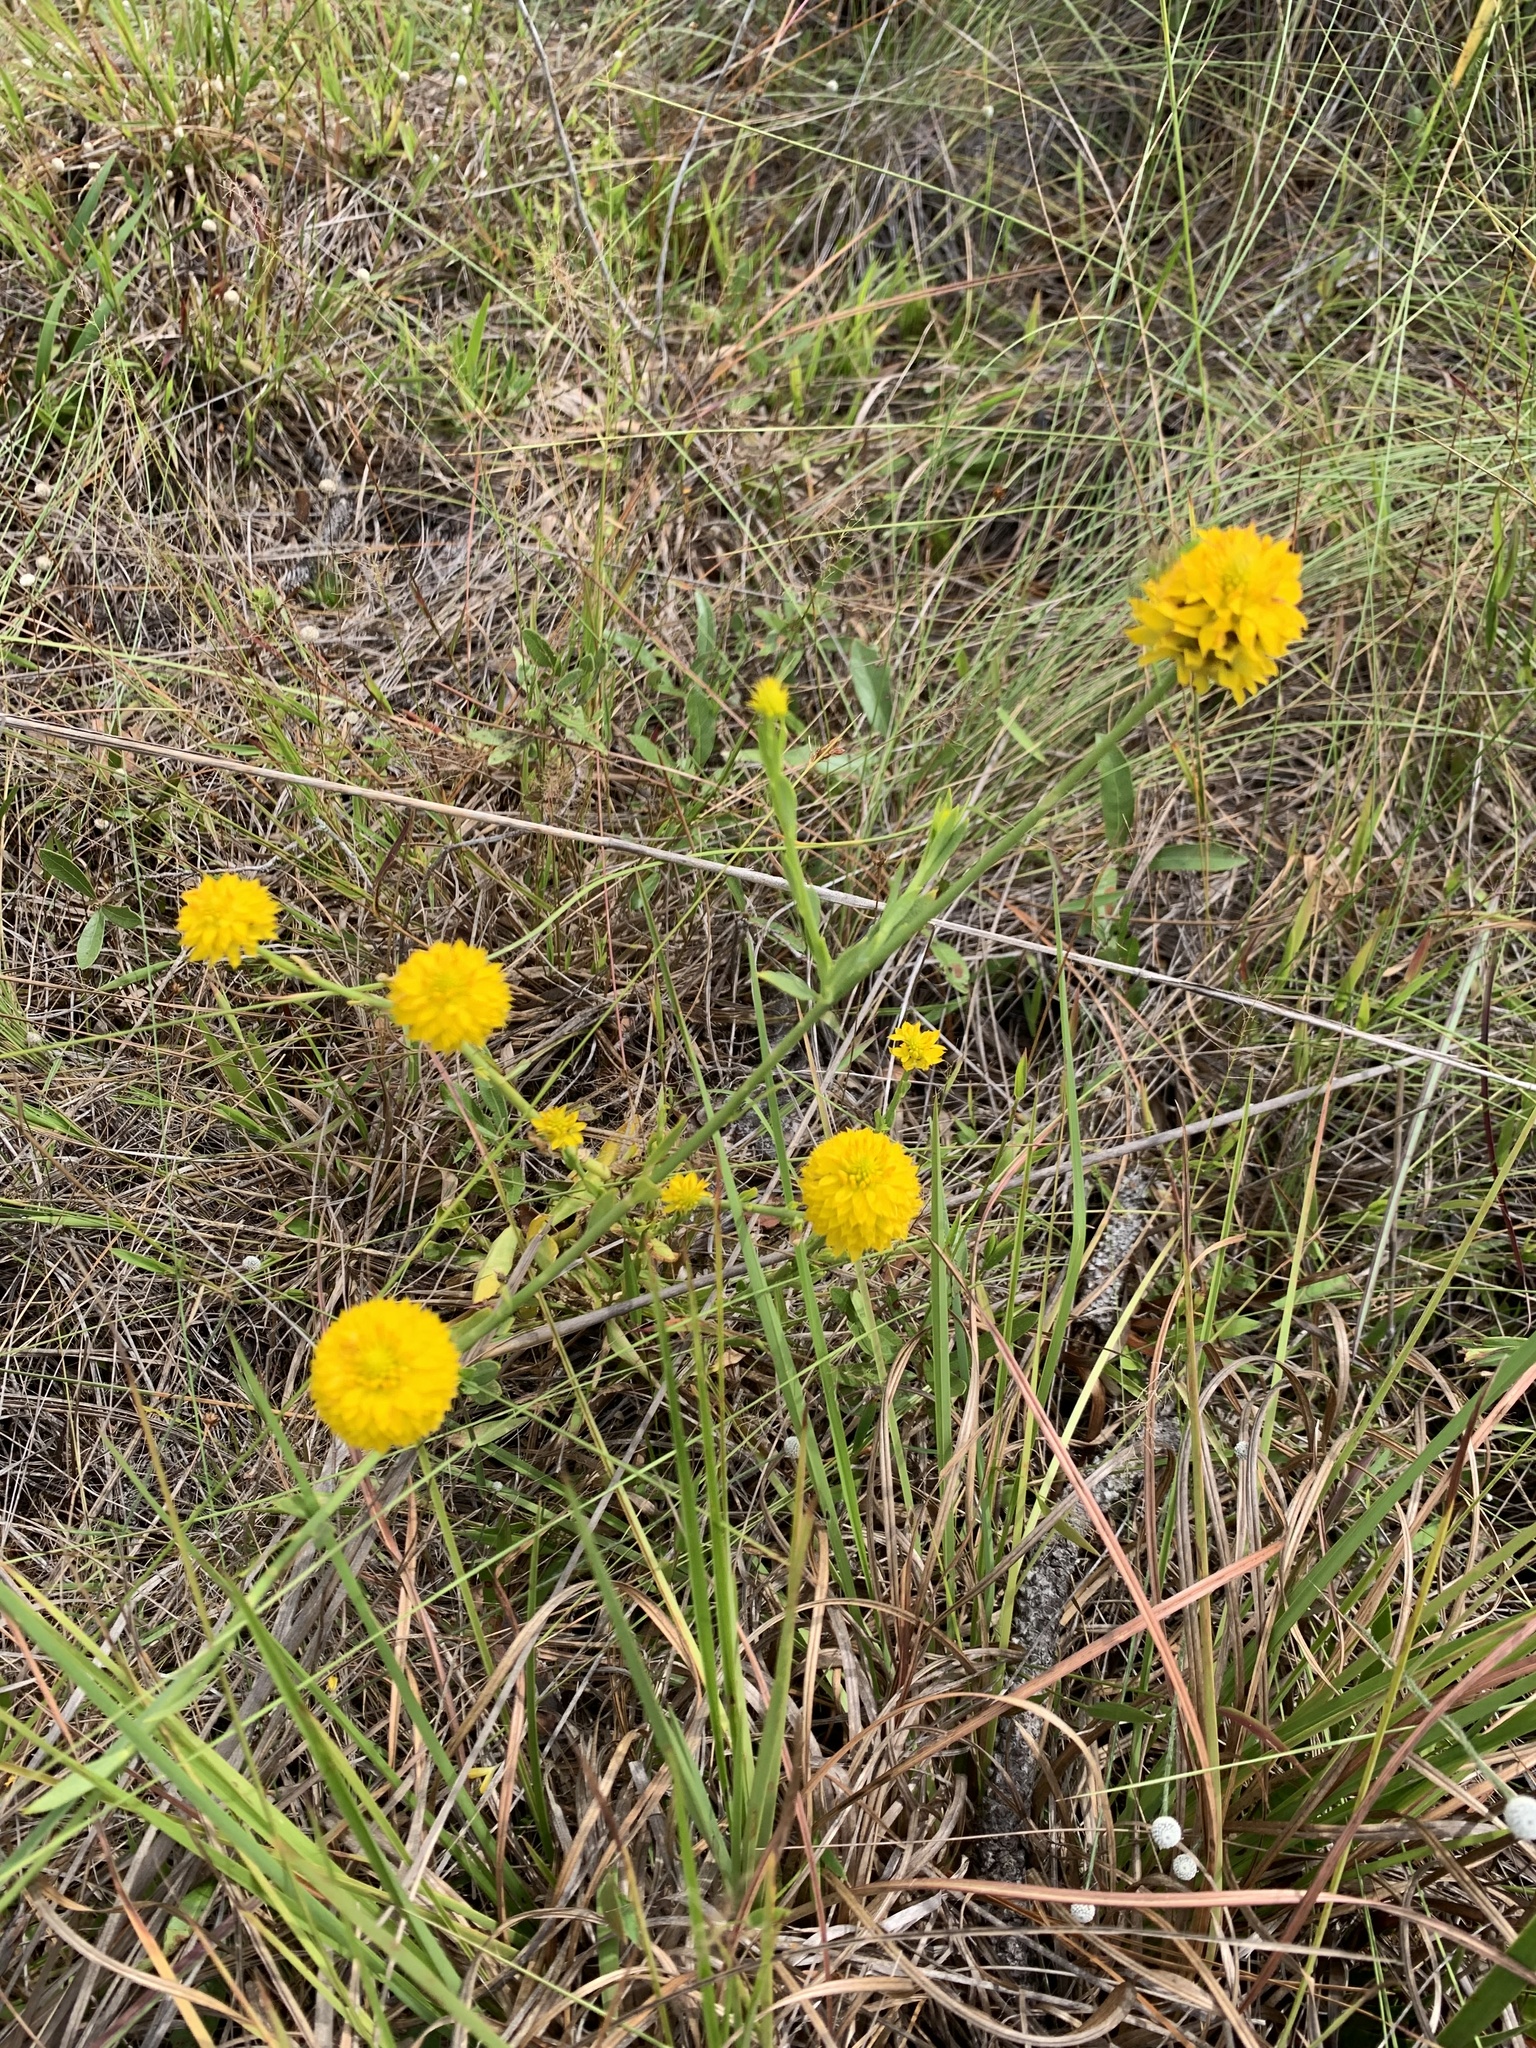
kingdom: Plantae
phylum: Tracheophyta
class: Magnoliopsida
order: Fabales
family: Polygalaceae
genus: Polygala
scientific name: Polygala rugelii
